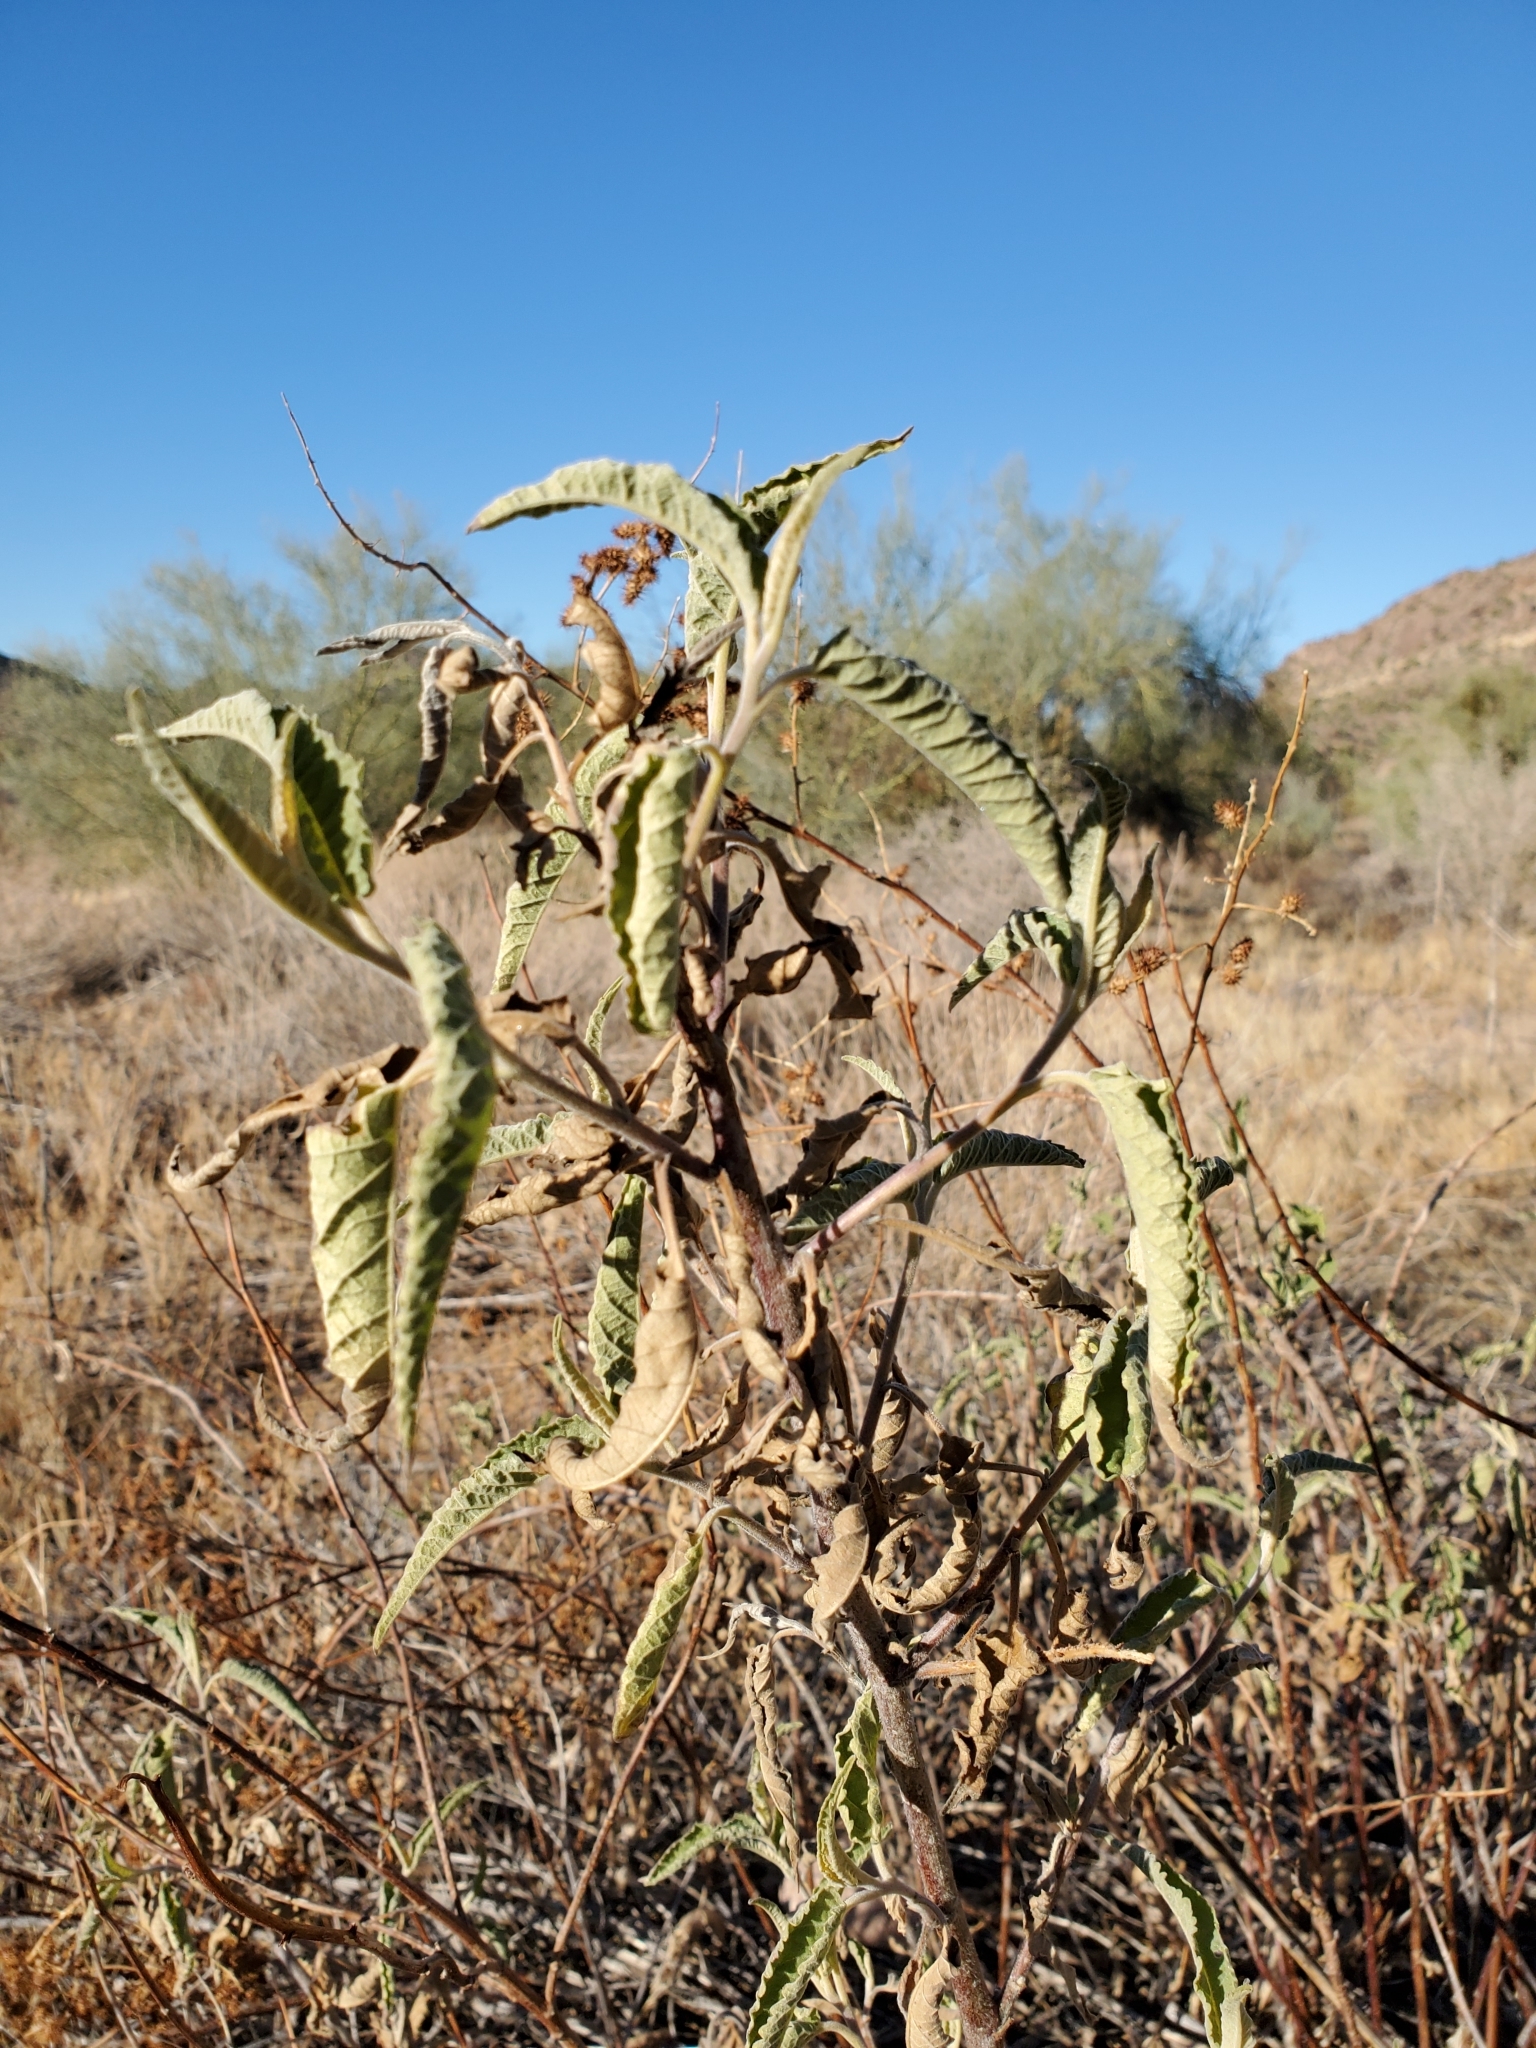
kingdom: Plantae
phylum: Tracheophyta
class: Magnoliopsida
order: Asterales
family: Asteraceae
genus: Ambrosia
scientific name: Ambrosia ambrosioides
